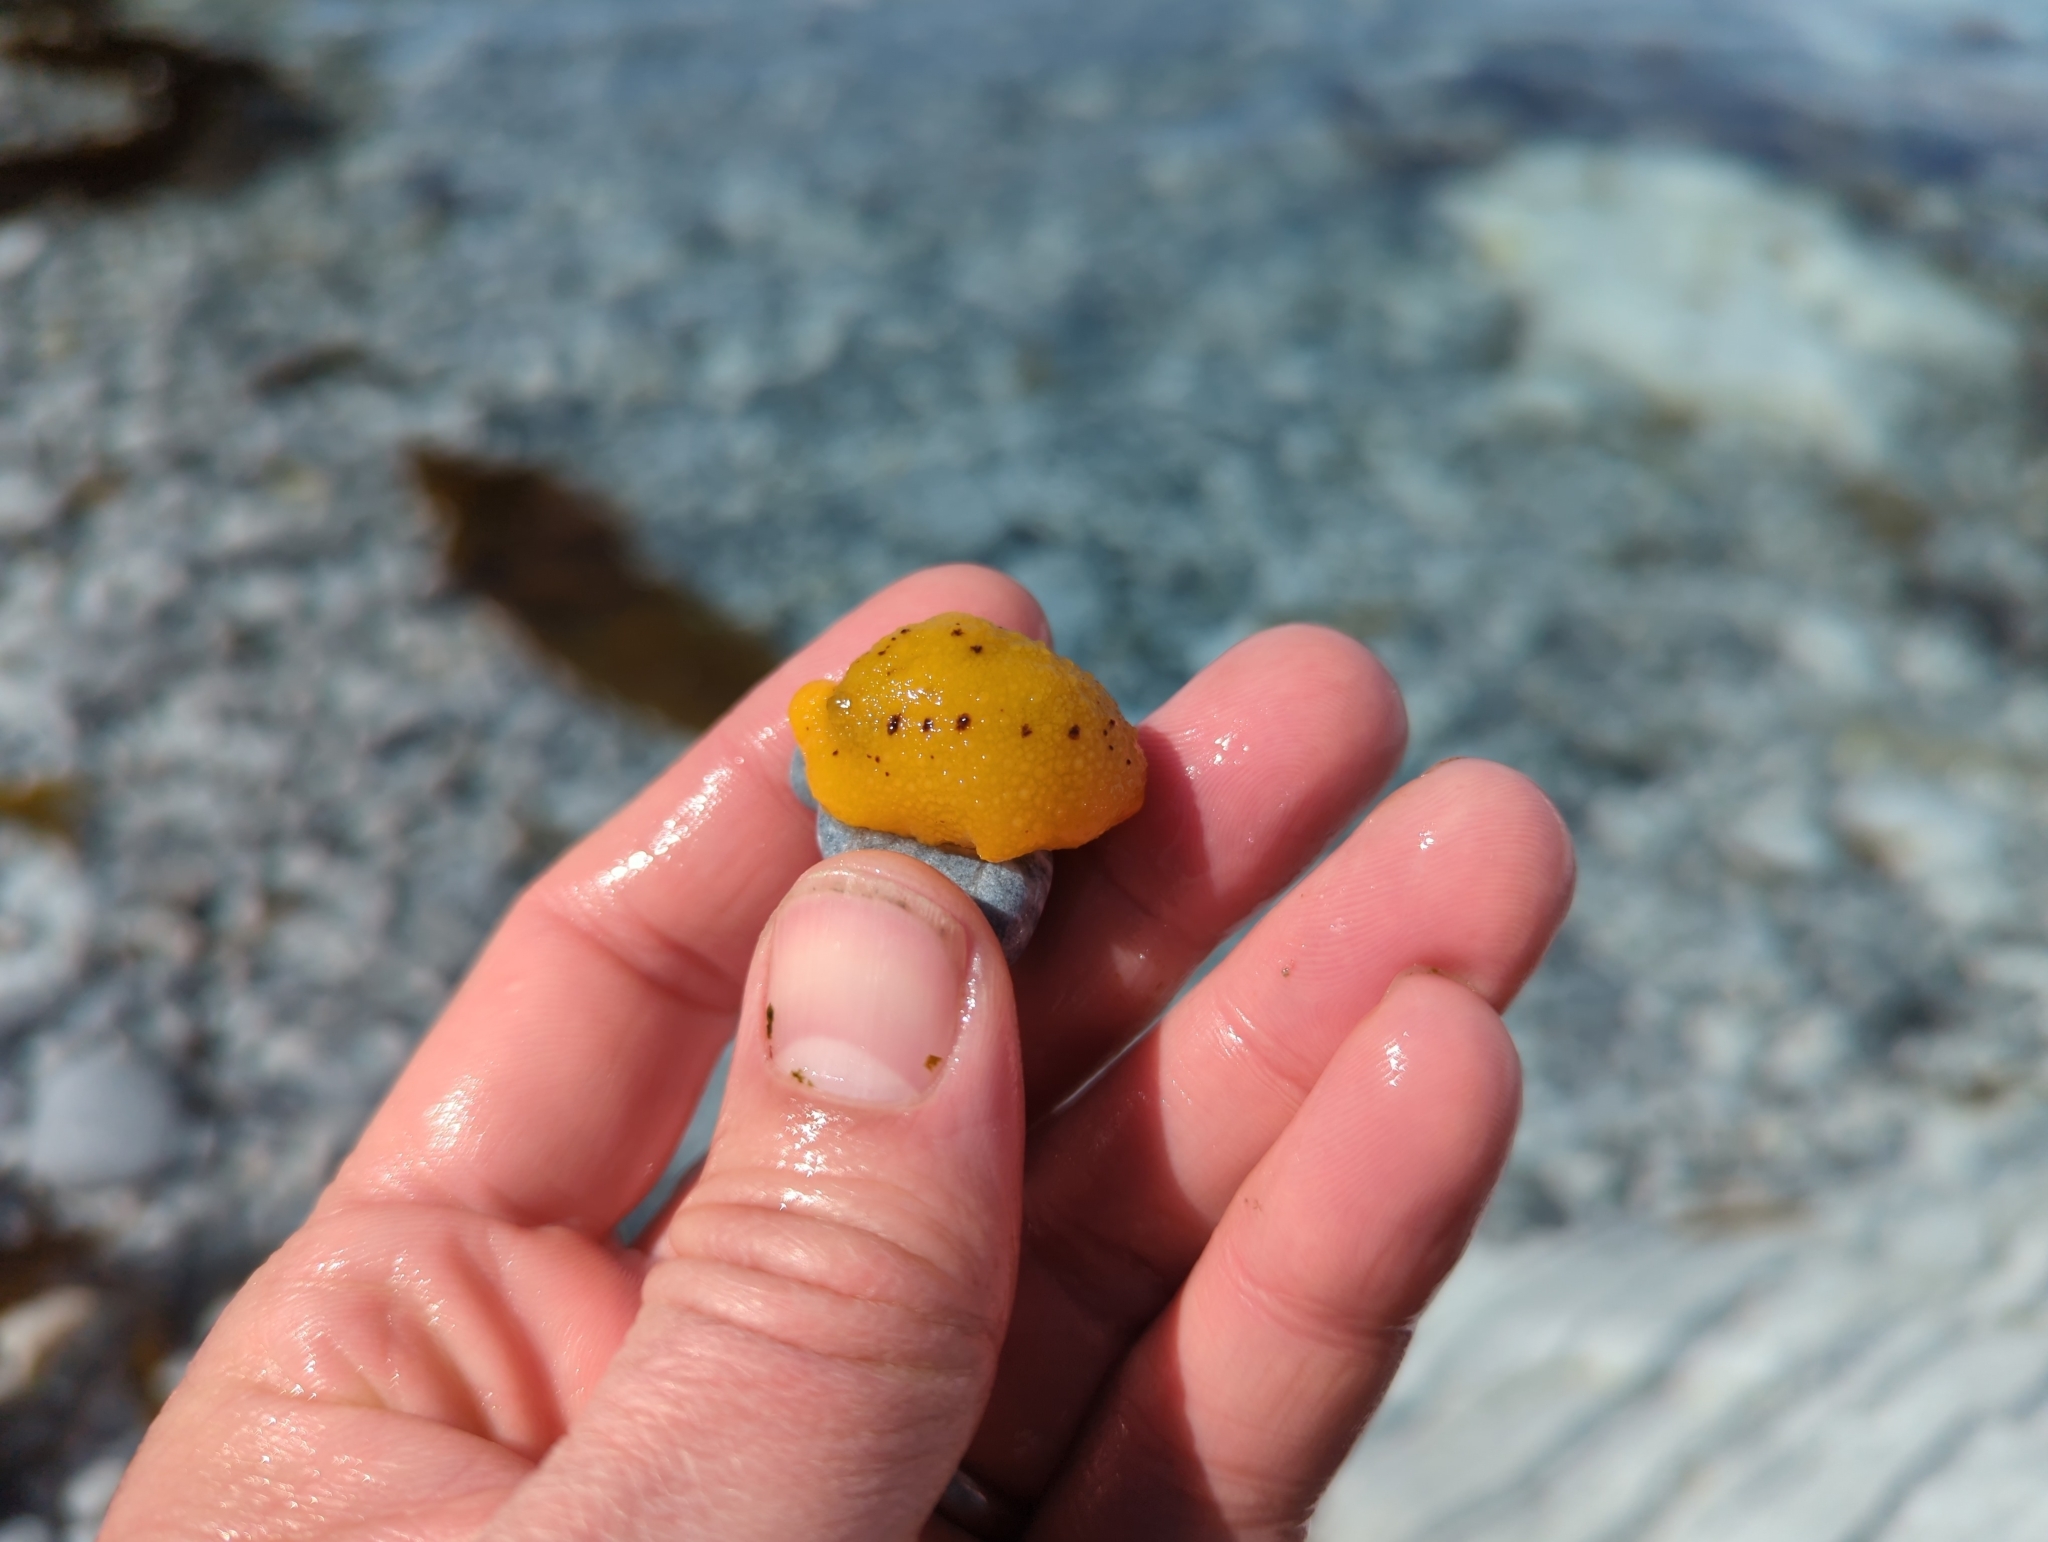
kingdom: Animalia
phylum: Mollusca
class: Gastropoda
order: Nudibranchia
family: Dorididae
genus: Doris
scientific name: Doris montereyensis
